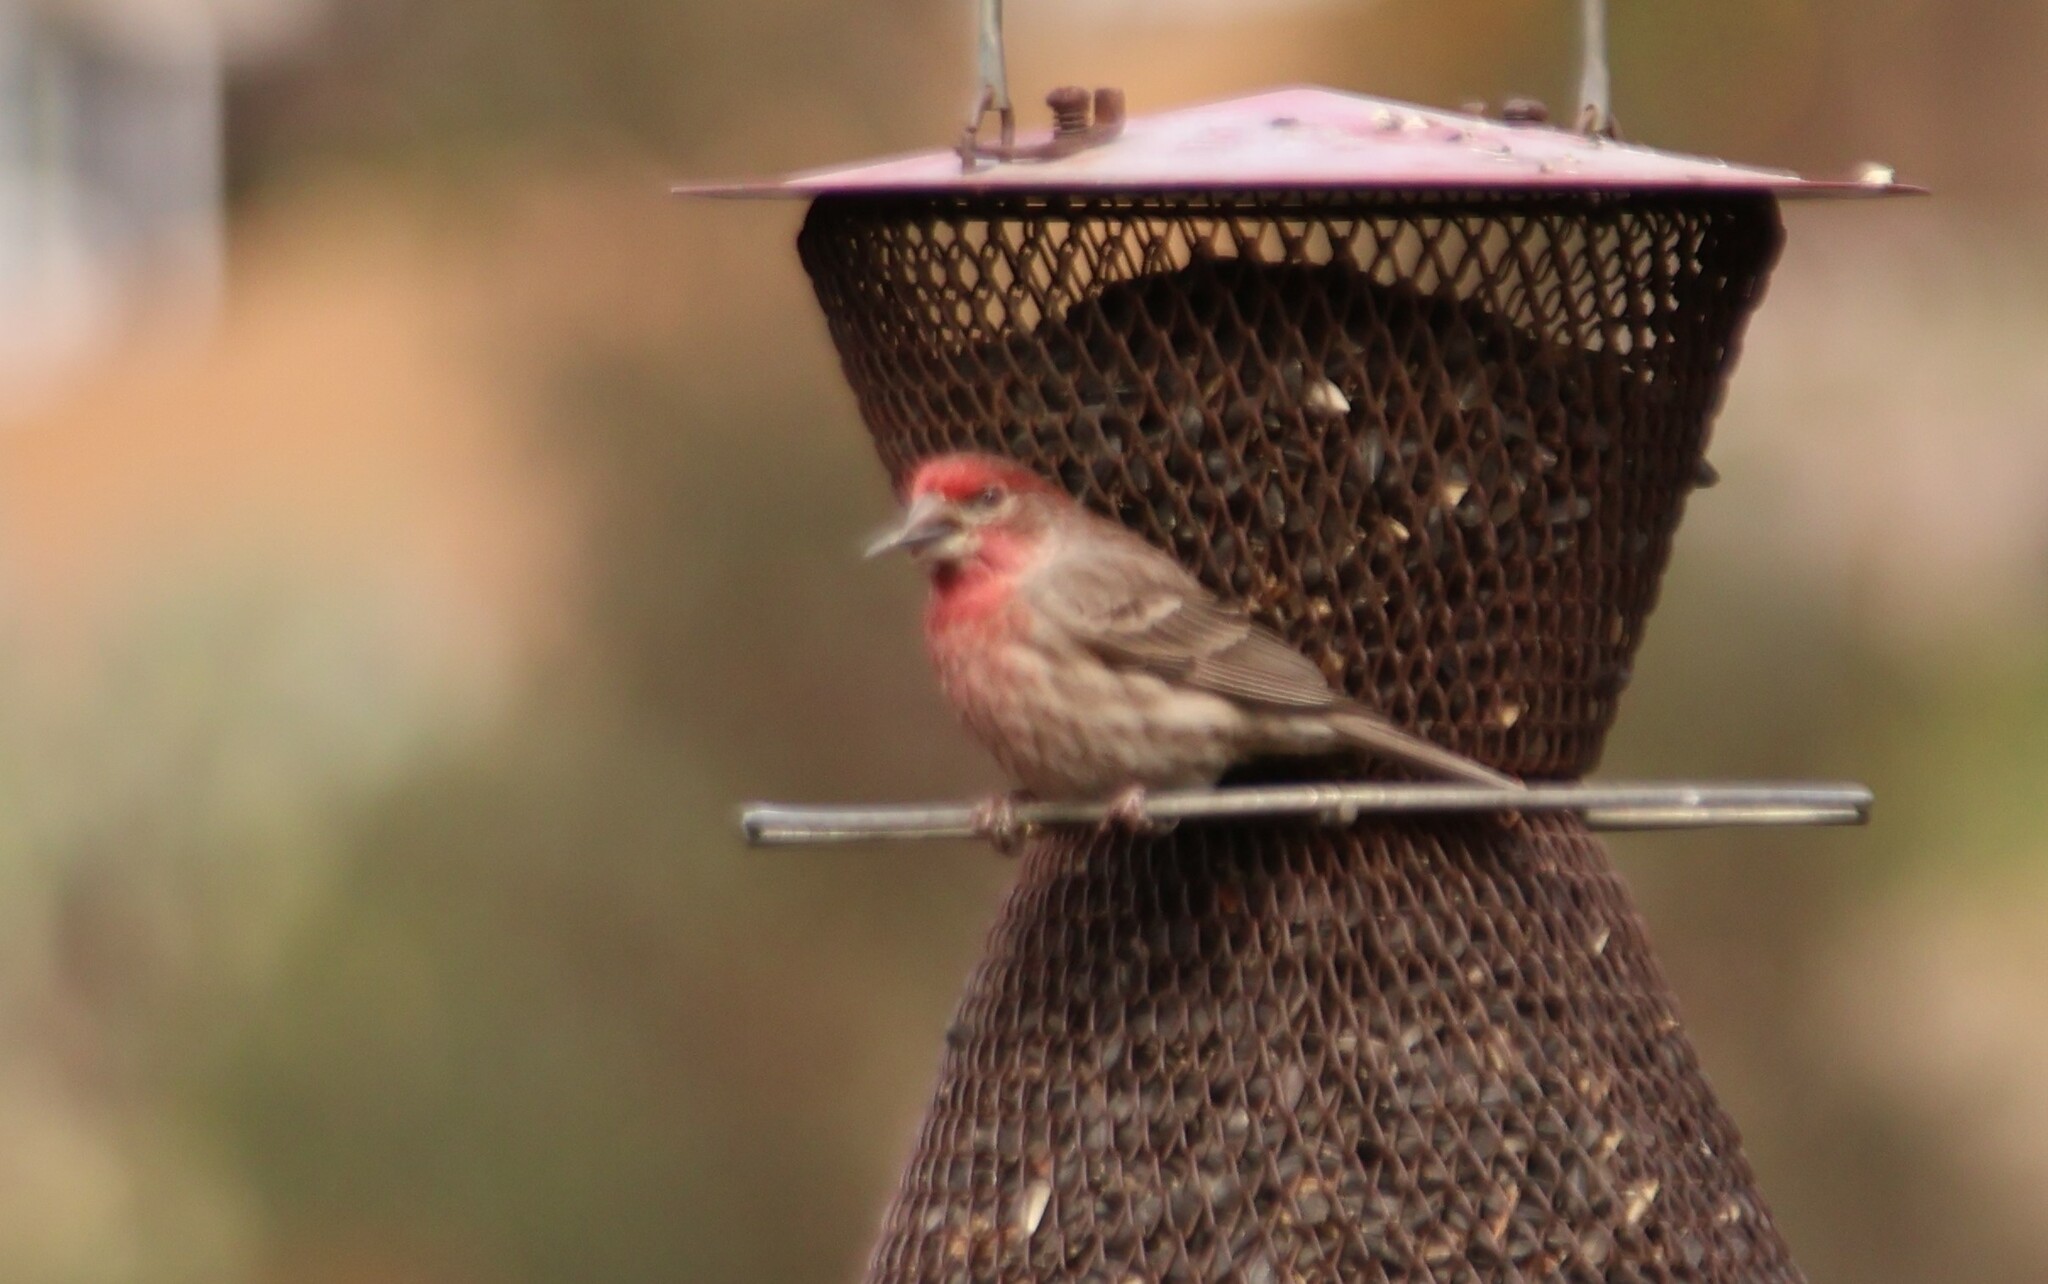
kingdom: Animalia
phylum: Chordata
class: Aves
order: Passeriformes
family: Fringillidae
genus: Haemorhous
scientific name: Haemorhous mexicanus
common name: House finch
